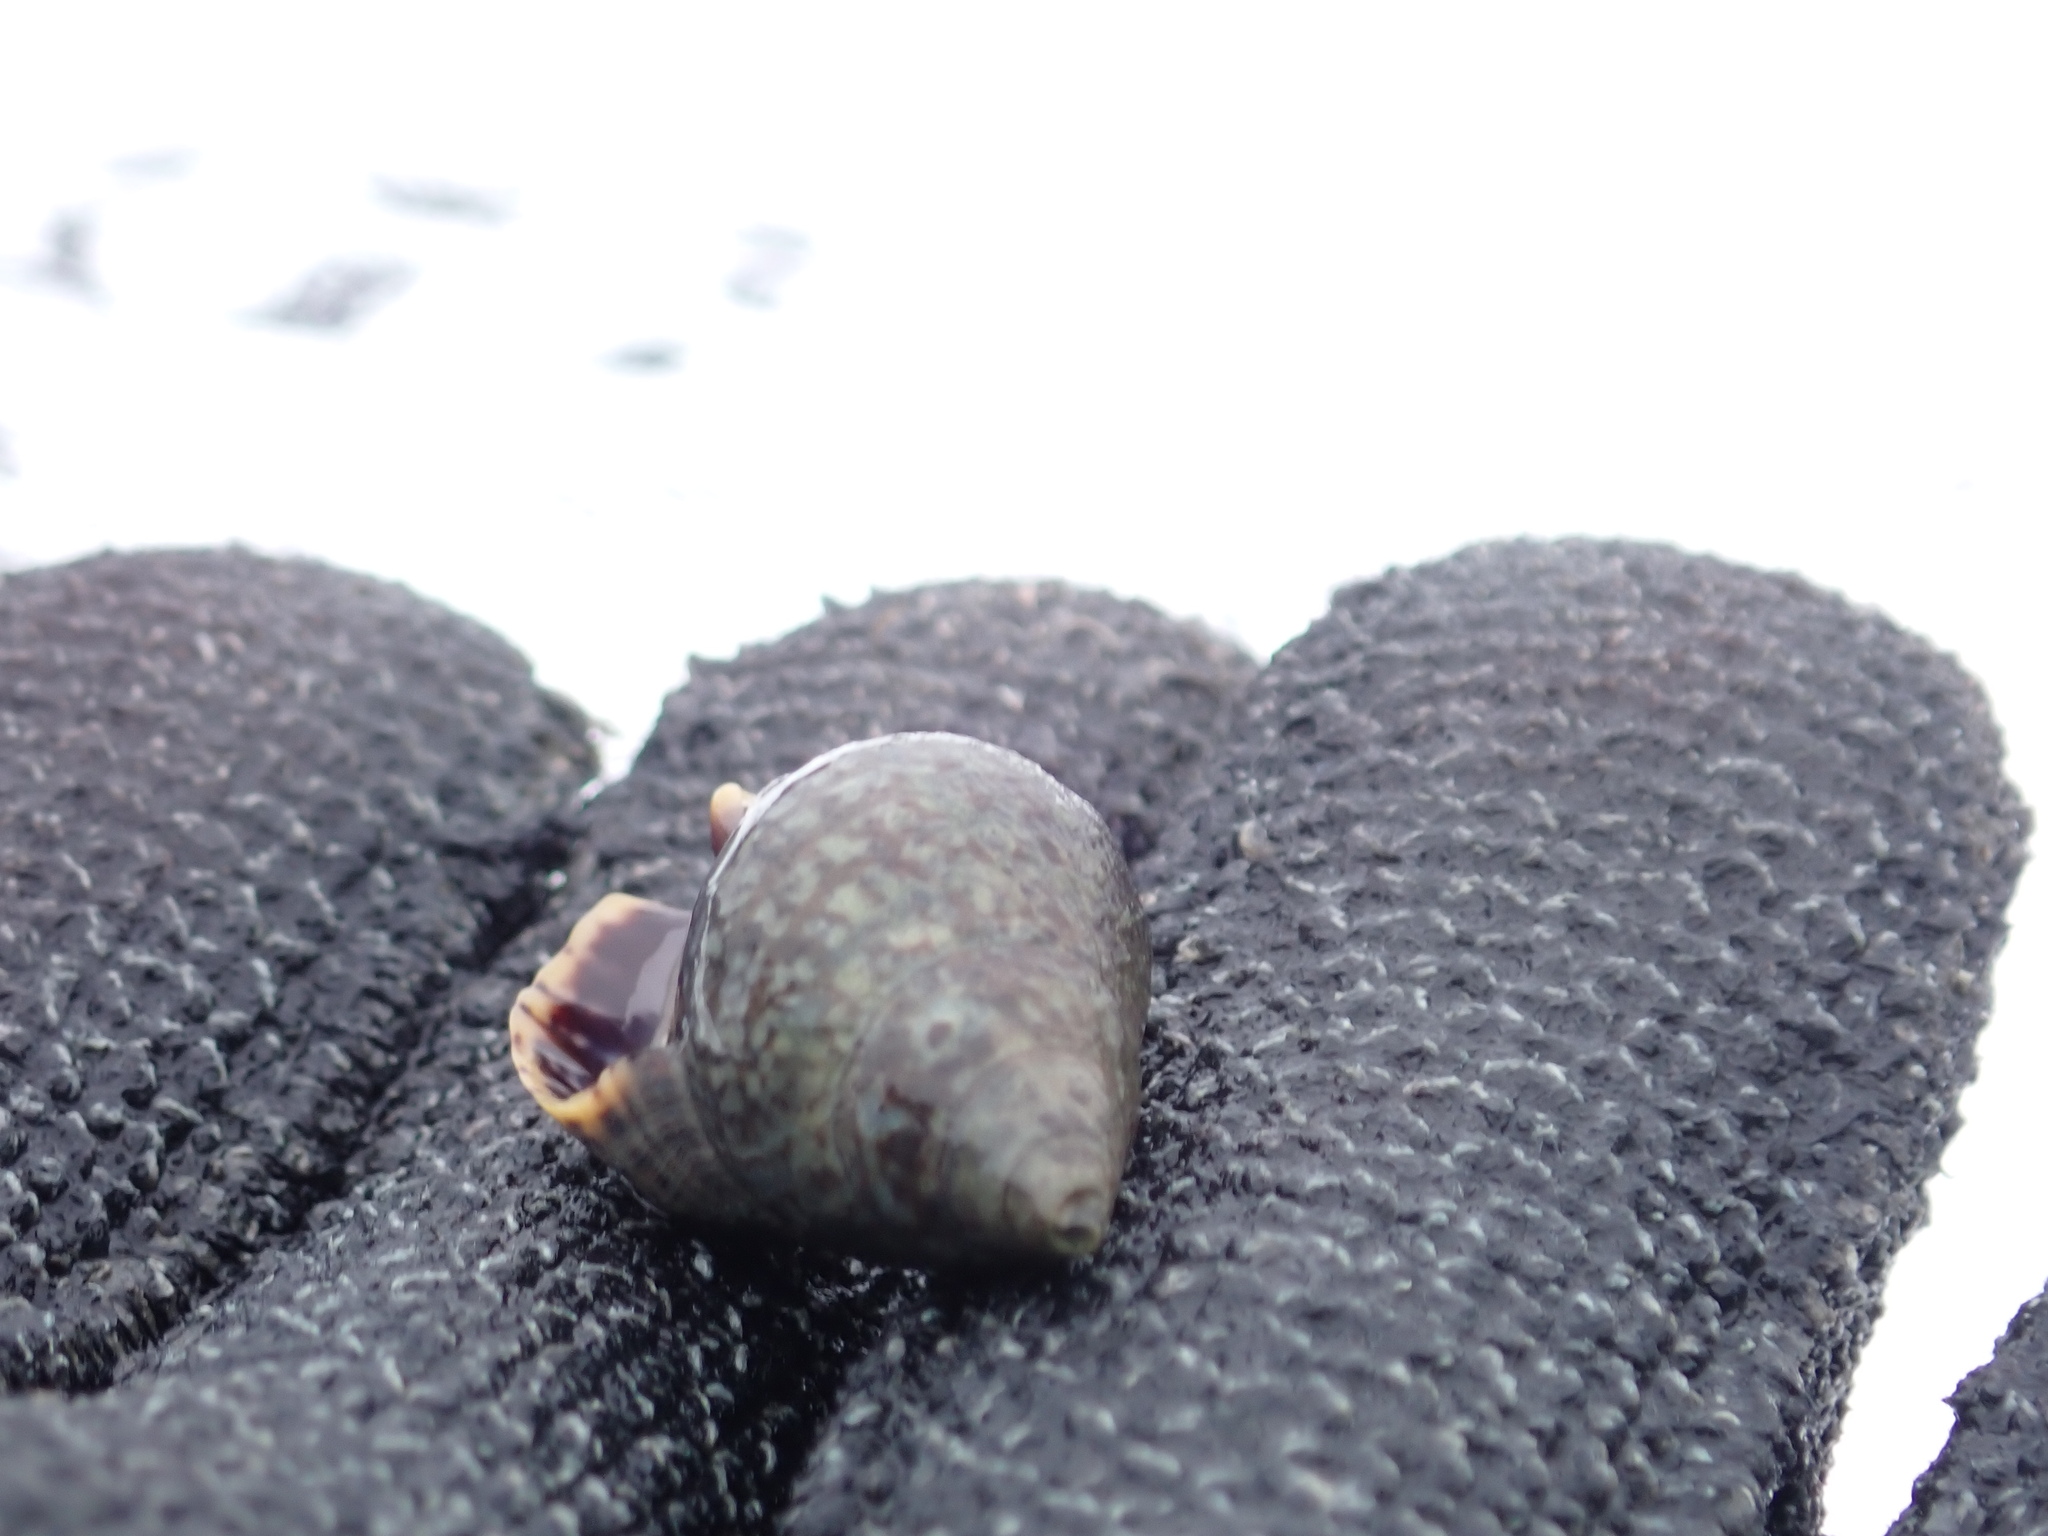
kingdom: Animalia
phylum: Mollusca
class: Gastropoda
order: Neogastropoda
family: Cominellidae
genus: Cominella
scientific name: Cominella maculosa
